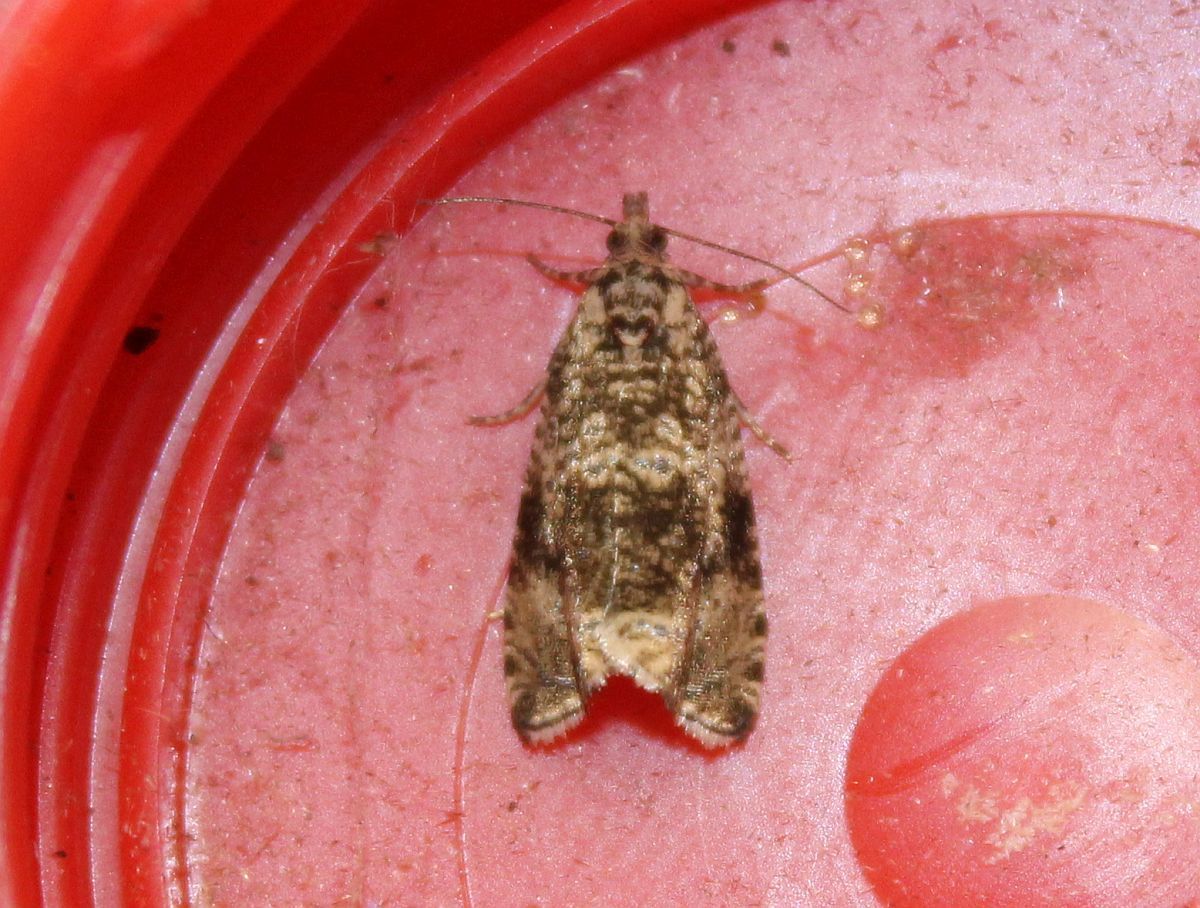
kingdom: Animalia
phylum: Arthropoda
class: Insecta
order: Lepidoptera
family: Tortricidae
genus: Syricoris
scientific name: Syricoris lacunana
